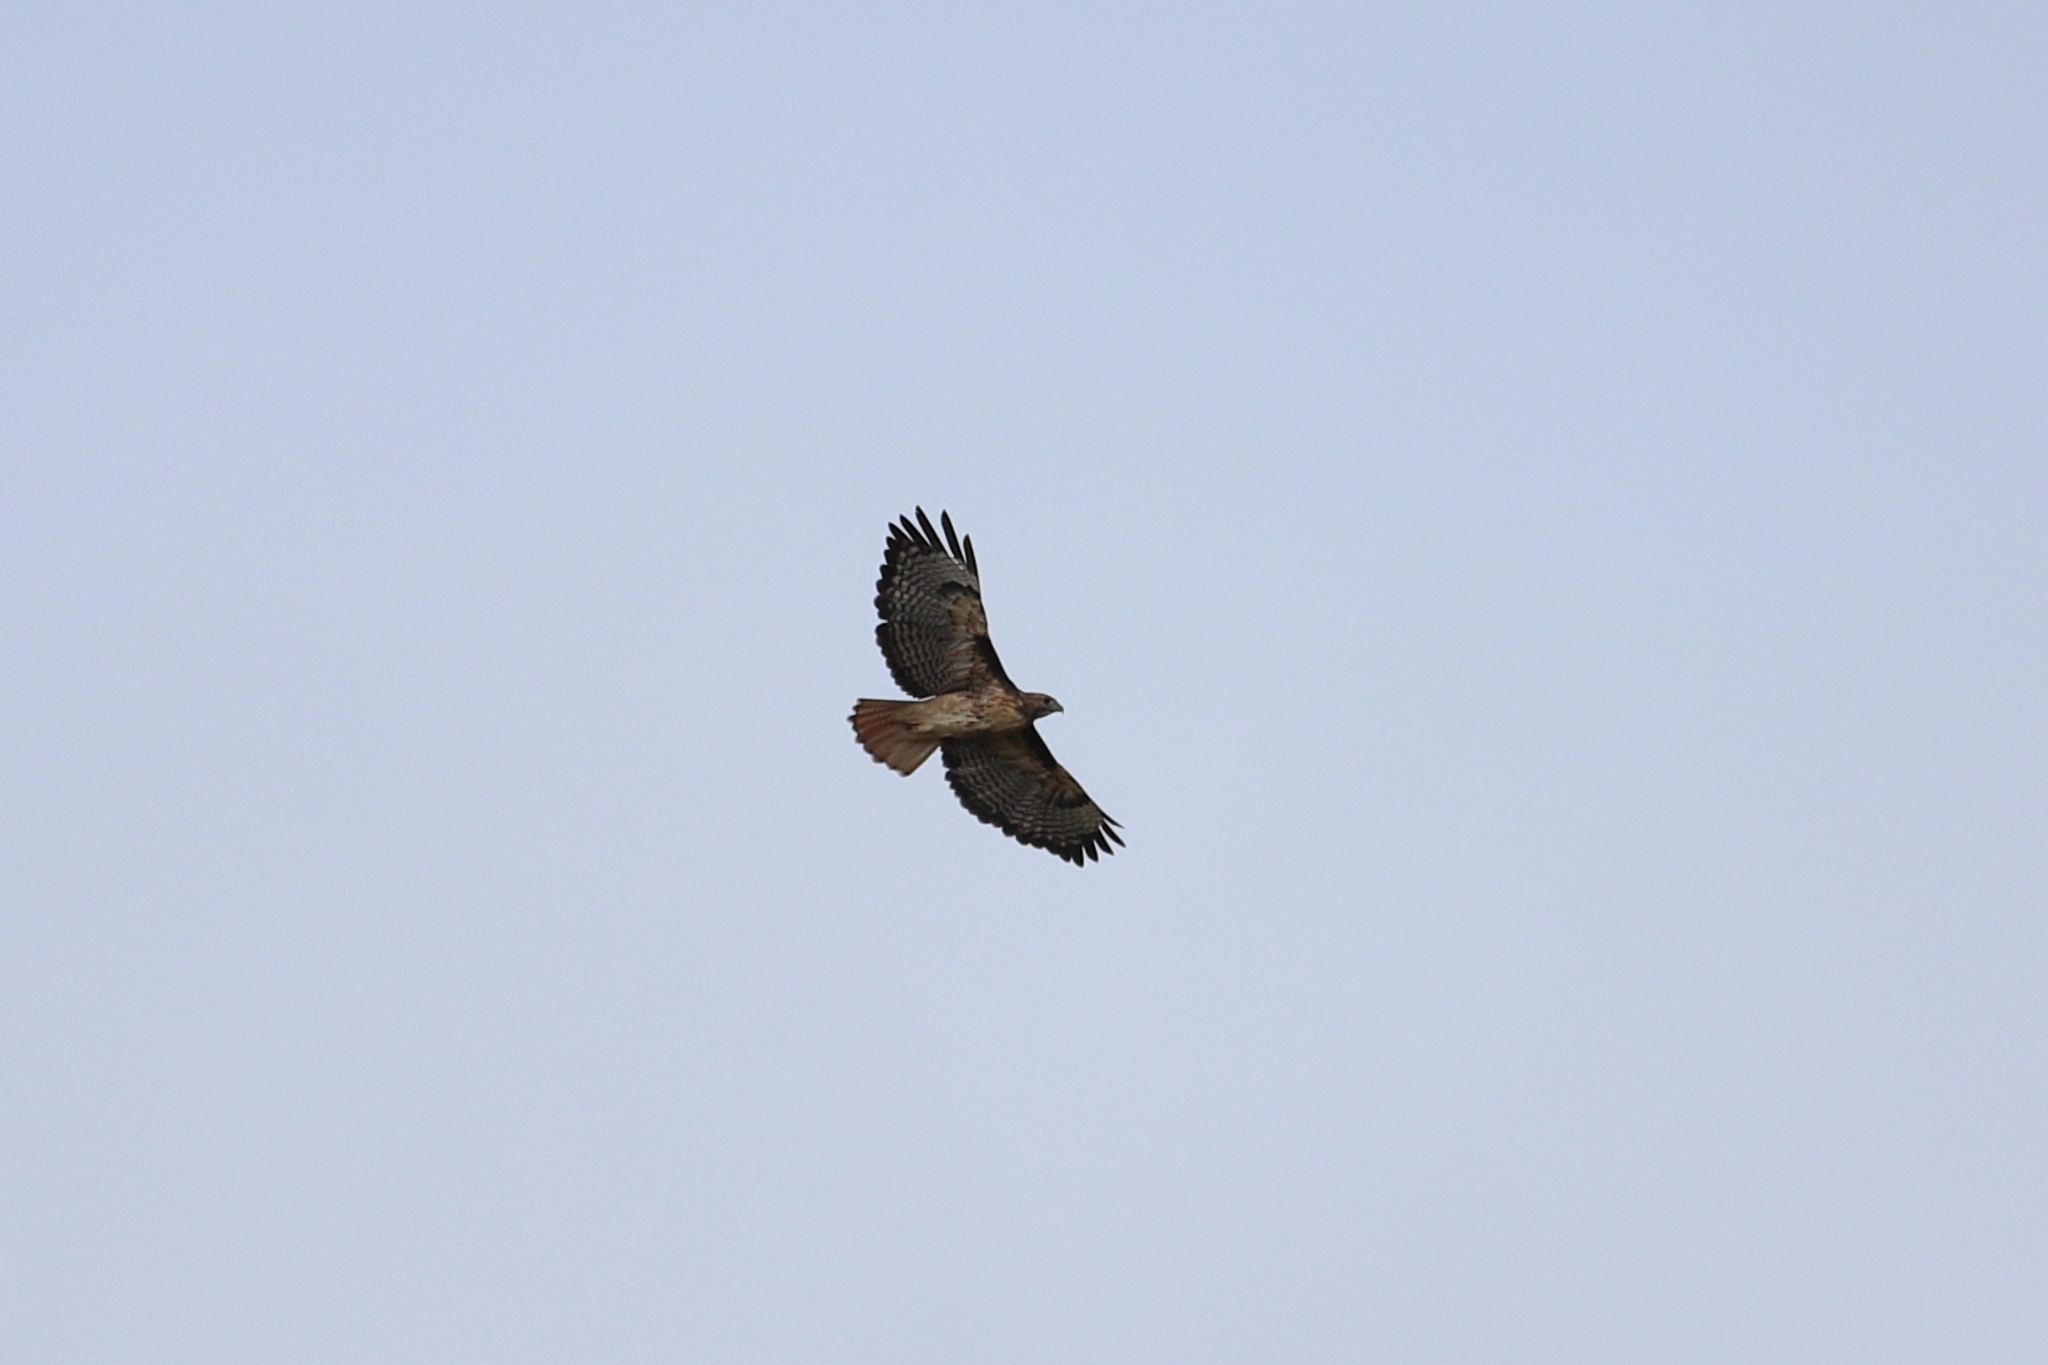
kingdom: Animalia
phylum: Chordata
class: Aves
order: Accipitriformes
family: Accipitridae
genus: Buteo
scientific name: Buteo jamaicensis
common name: Red-tailed hawk
